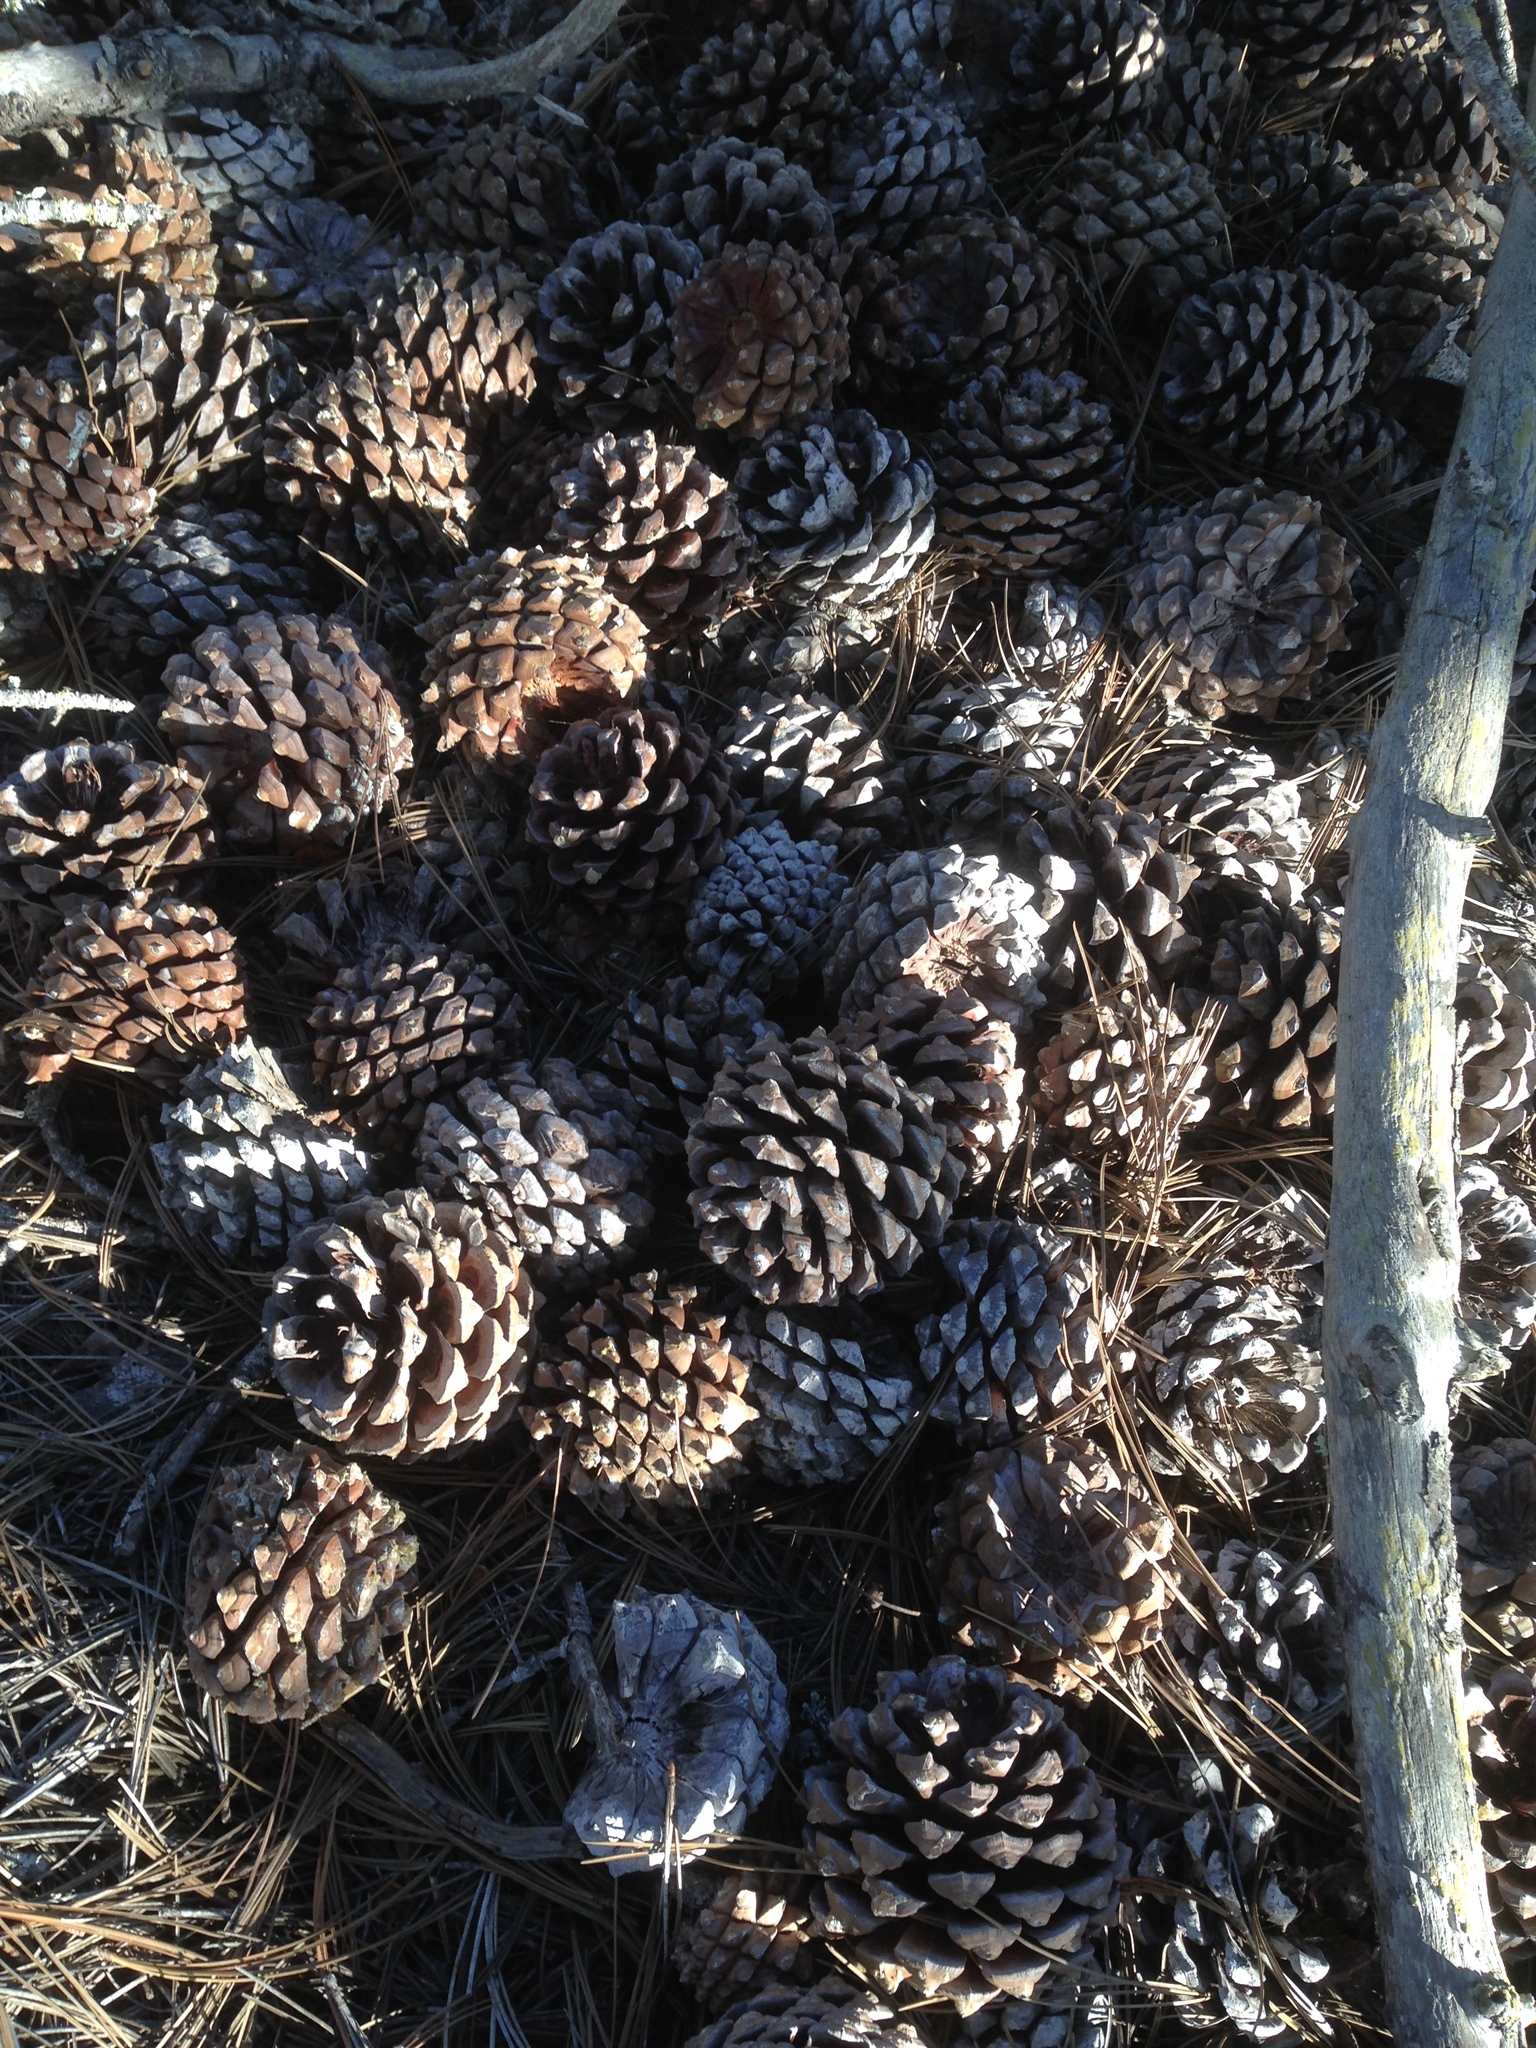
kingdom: Plantae
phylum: Tracheophyta
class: Pinopsida
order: Pinales
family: Pinaceae
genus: Pinus
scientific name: Pinus torreyana
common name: Torrey pine
